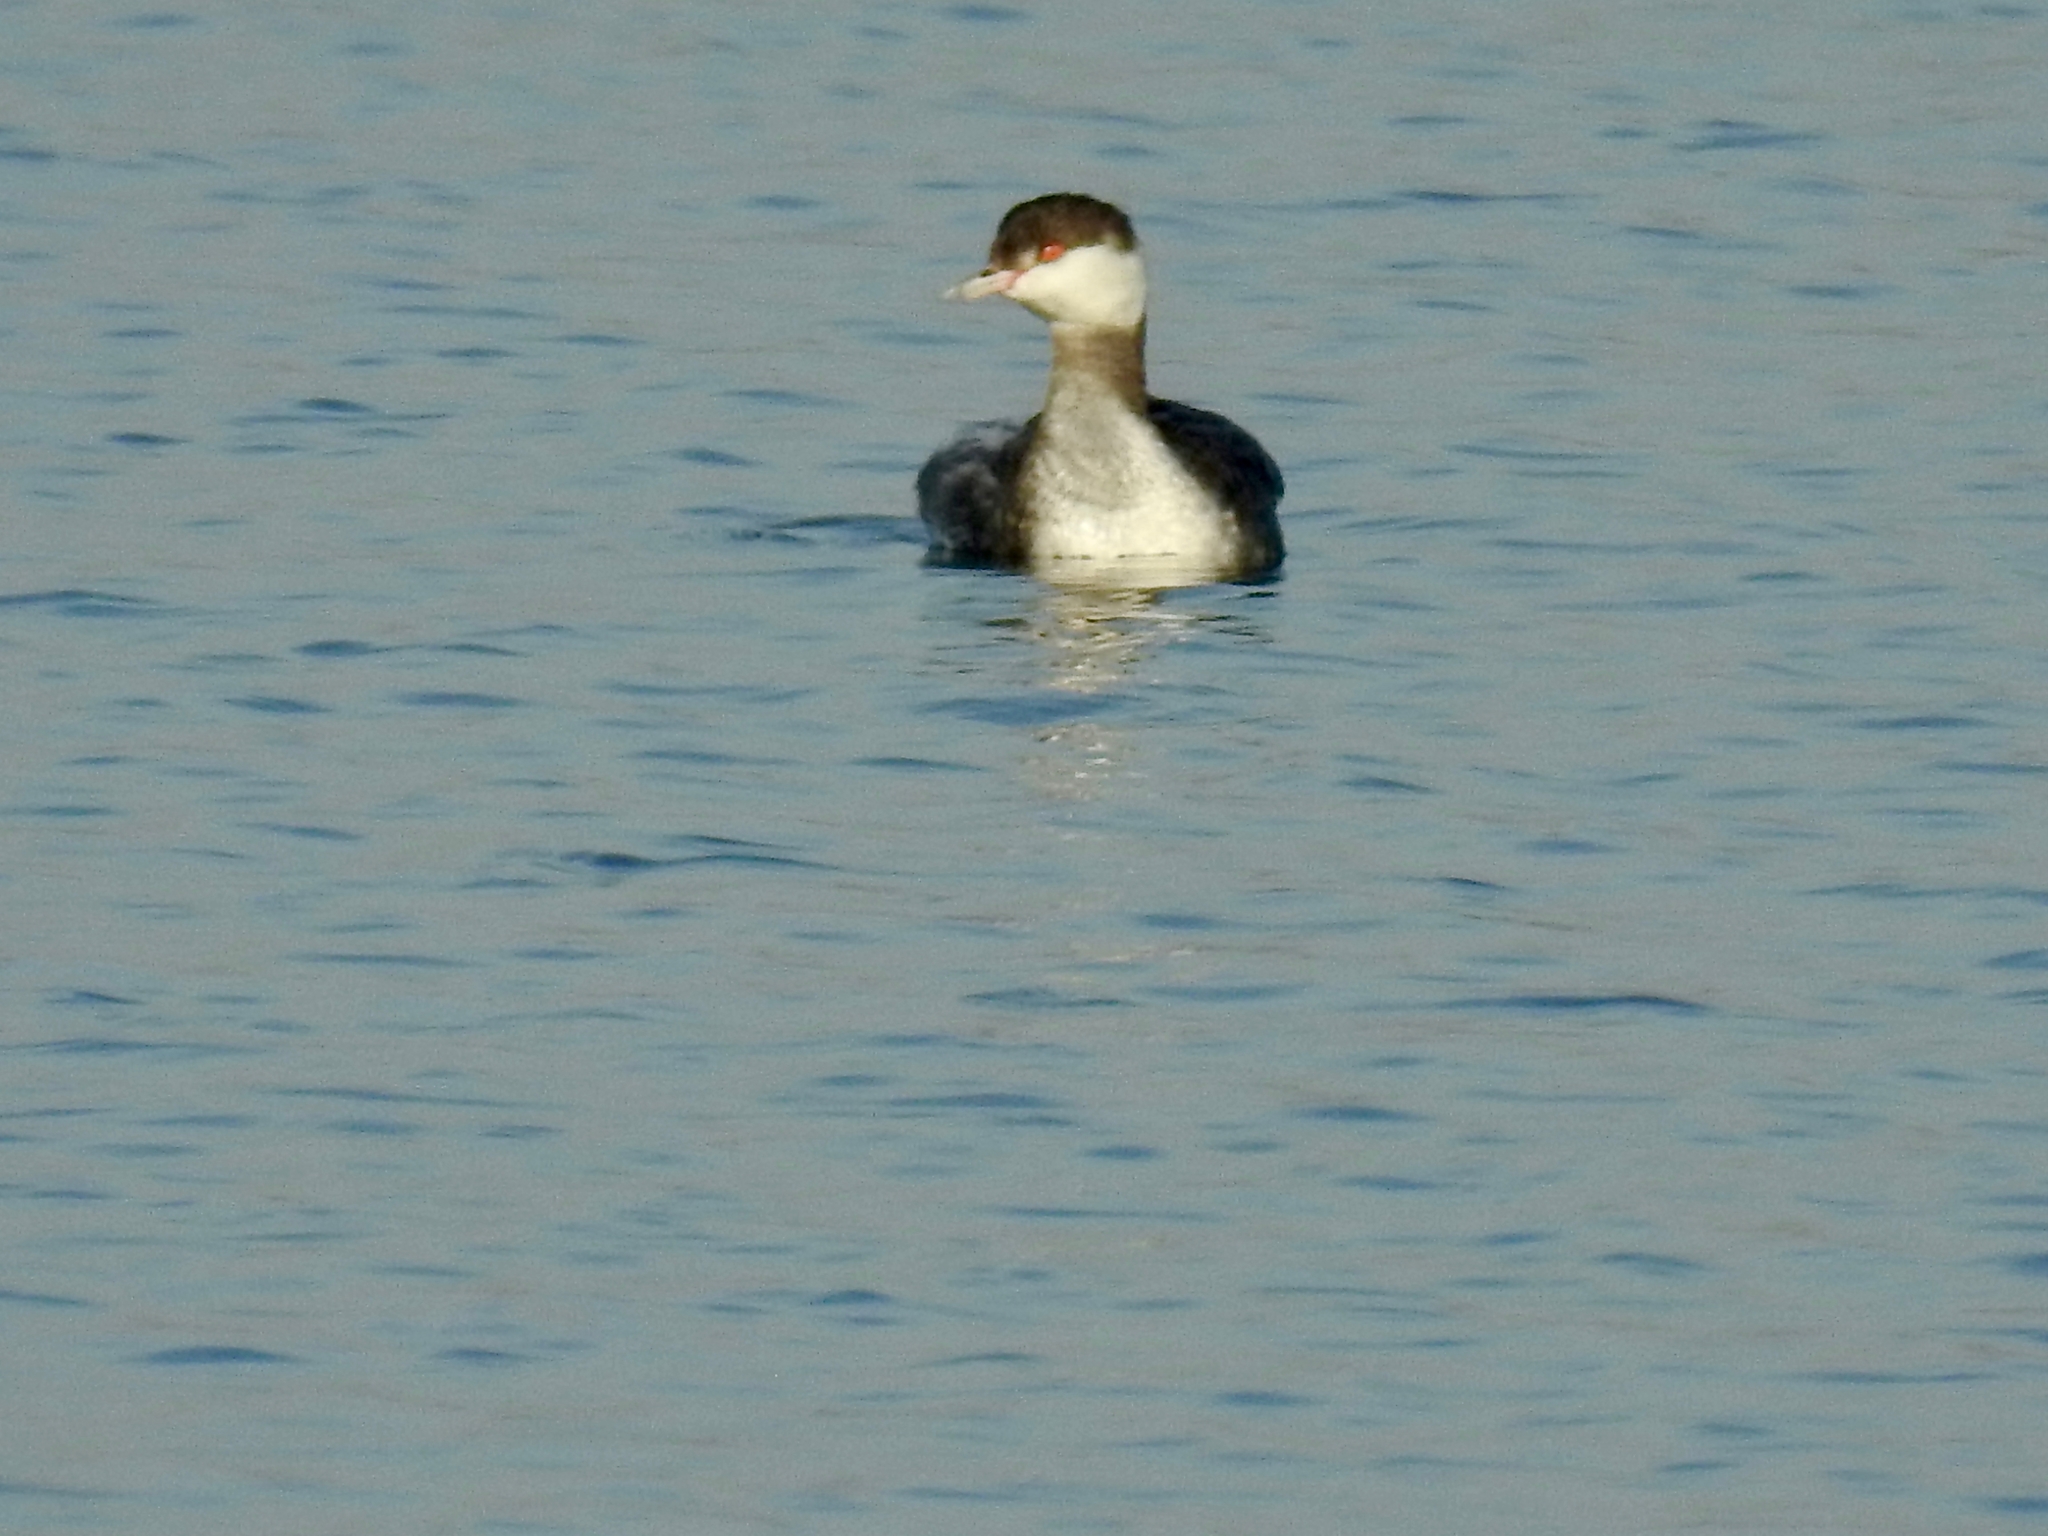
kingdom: Animalia
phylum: Chordata
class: Aves
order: Podicipediformes
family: Podicipedidae
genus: Podiceps
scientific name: Podiceps auritus
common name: Horned grebe
